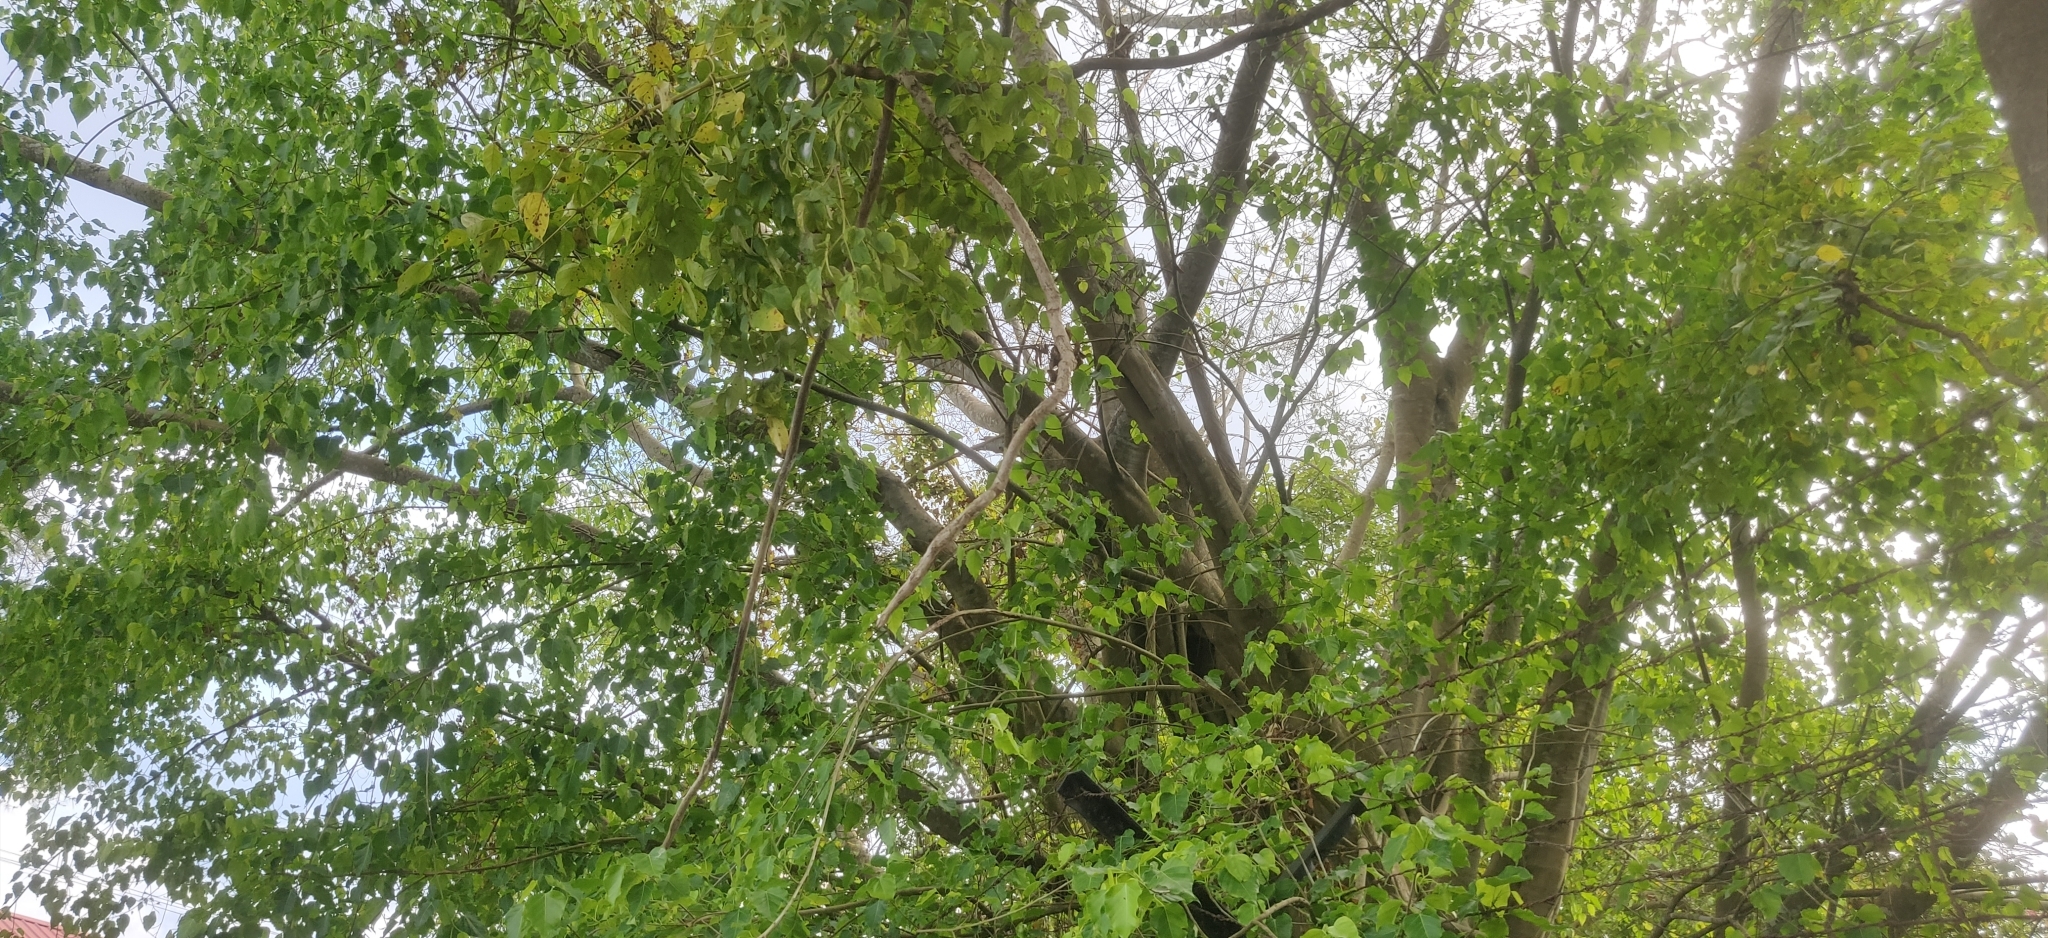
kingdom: Plantae
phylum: Tracheophyta
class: Magnoliopsida
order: Rosales
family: Moraceae
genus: Ficus
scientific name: Ficus rumphii
